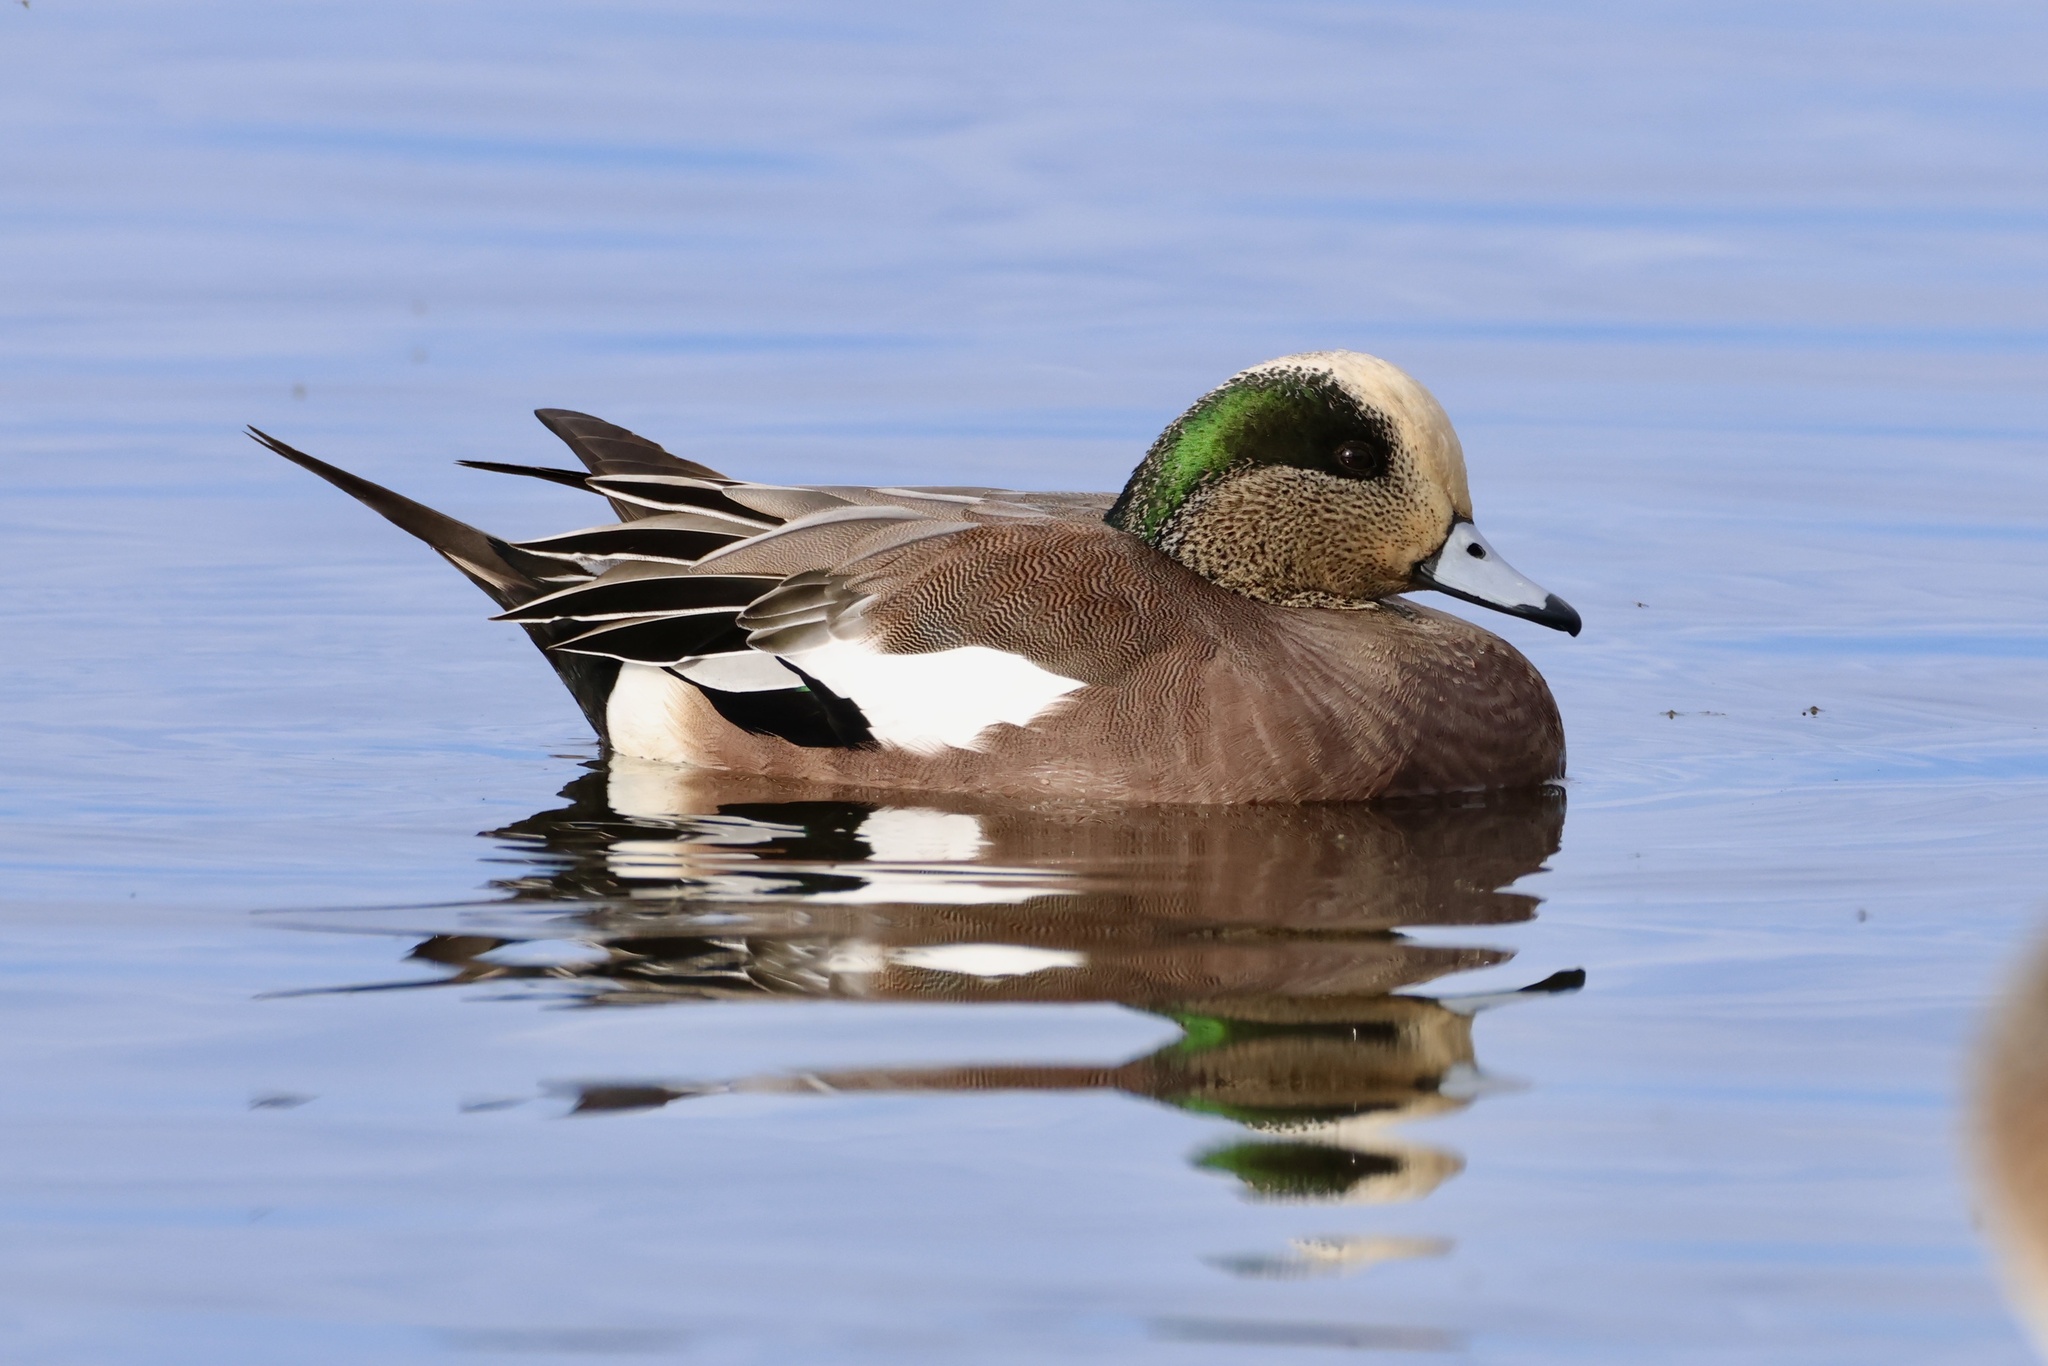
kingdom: Animalia
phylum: Chordata
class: Aves
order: Anseriformes
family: Anatidae
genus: Mareca
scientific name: Mareca americana
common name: American wigeon
